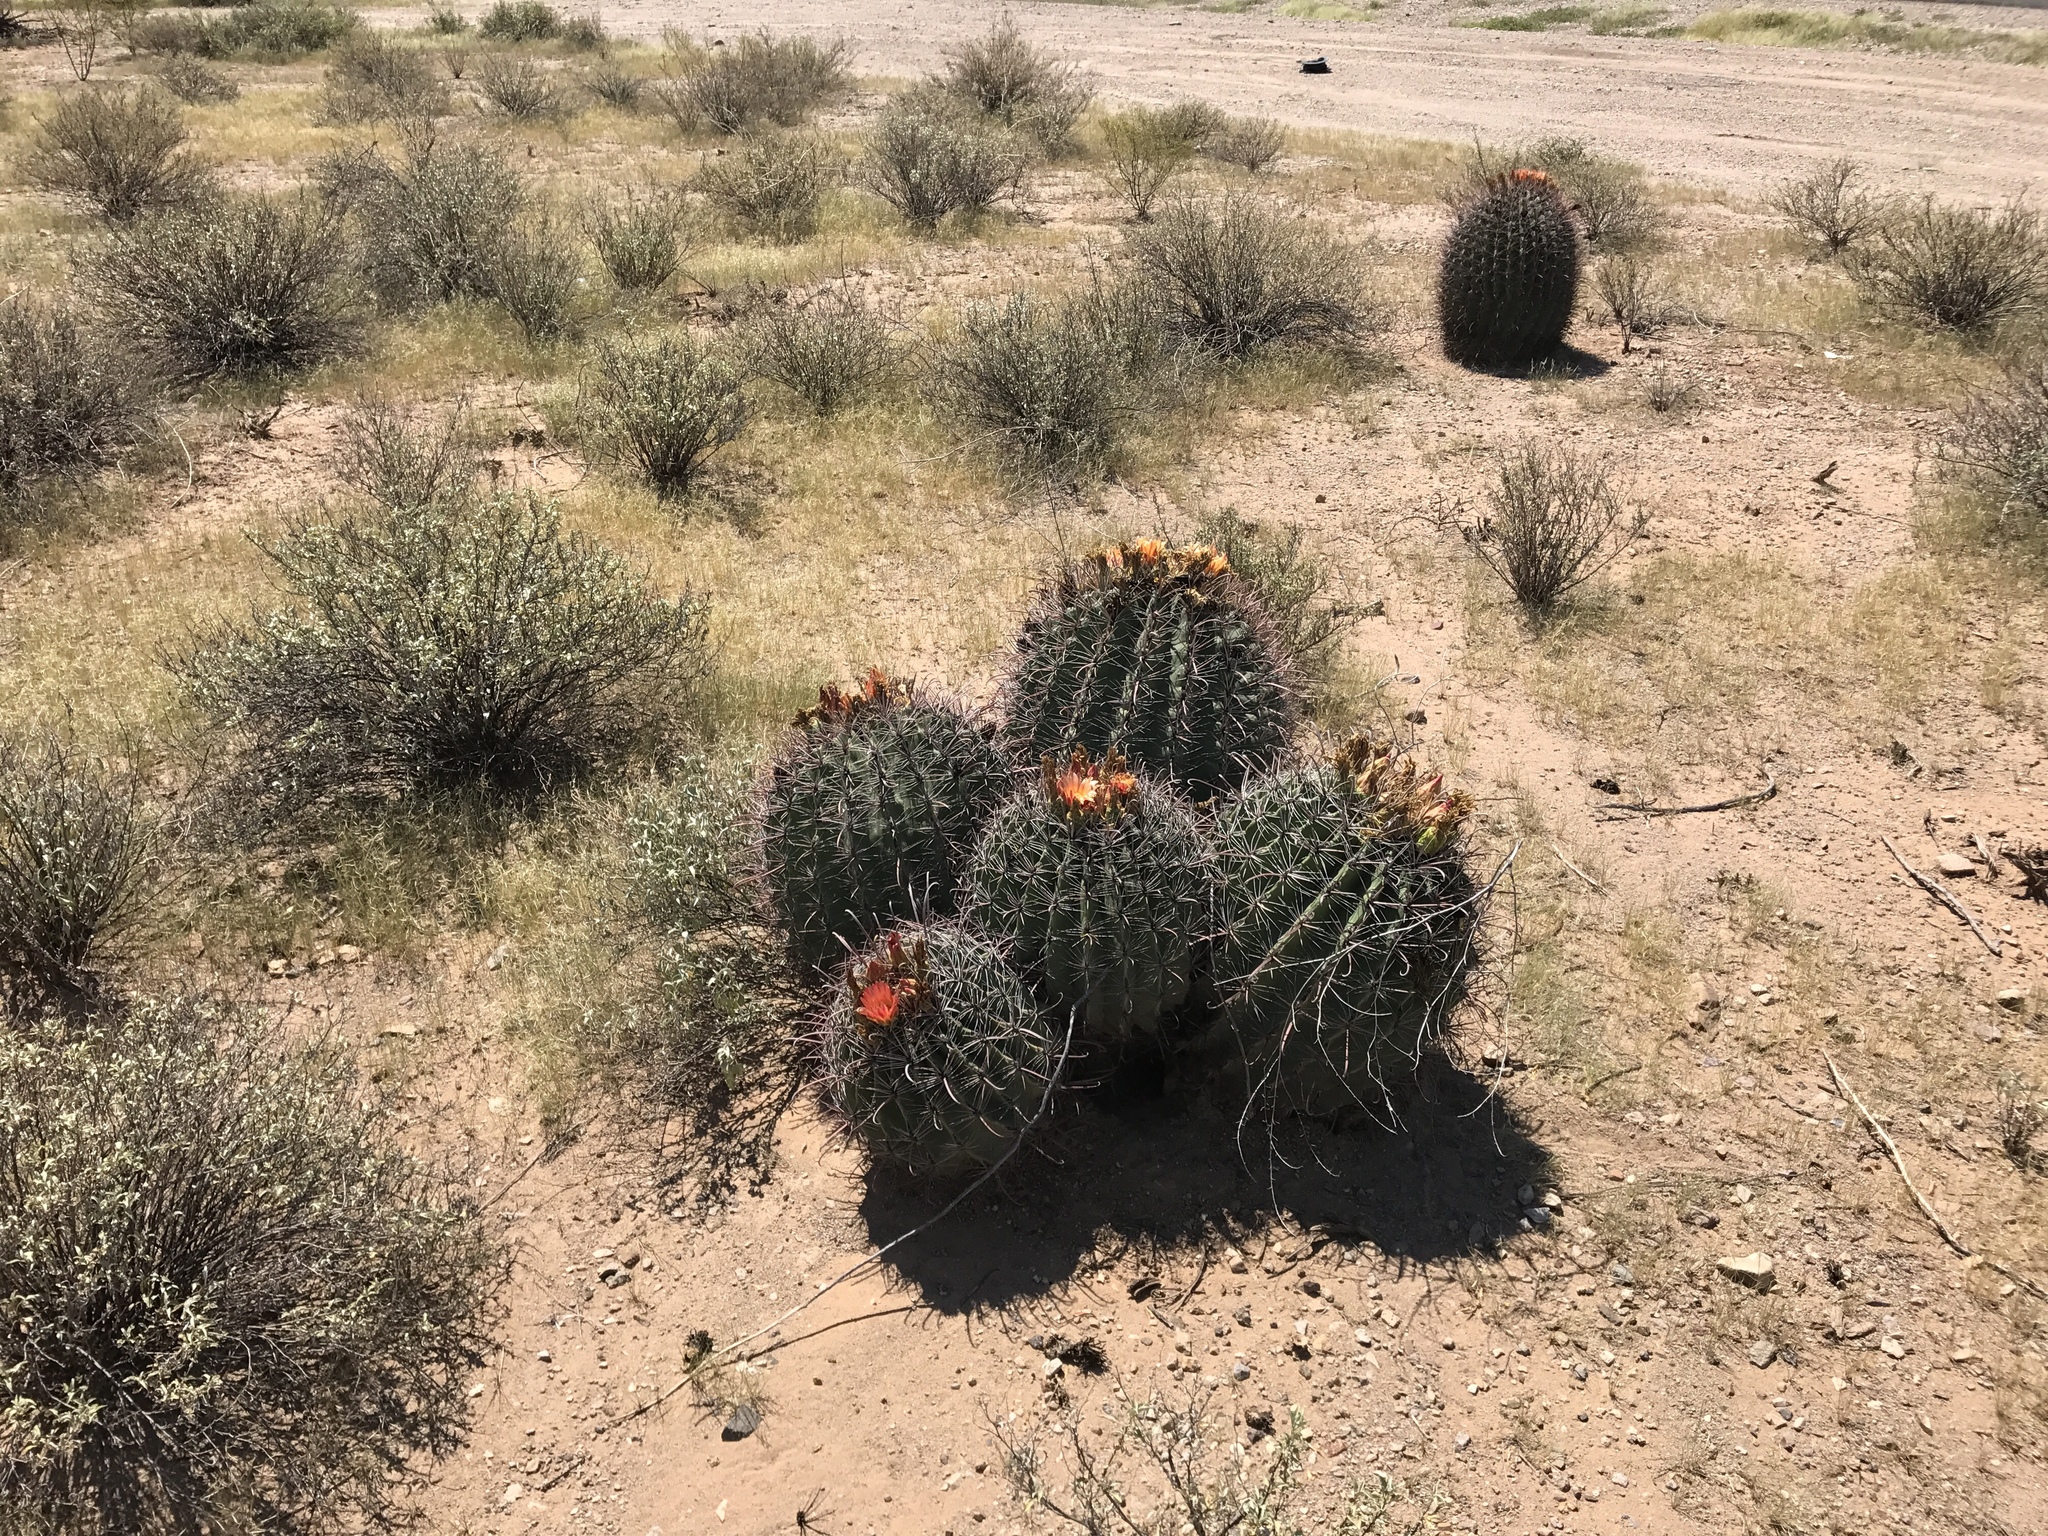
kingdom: Plantae
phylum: Tracheophyta
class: Magnoliopsida
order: Caryophyllales
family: Cactaceae
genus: Ferocactus
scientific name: Ferocactus wislizeni
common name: Candy barrel cactus
